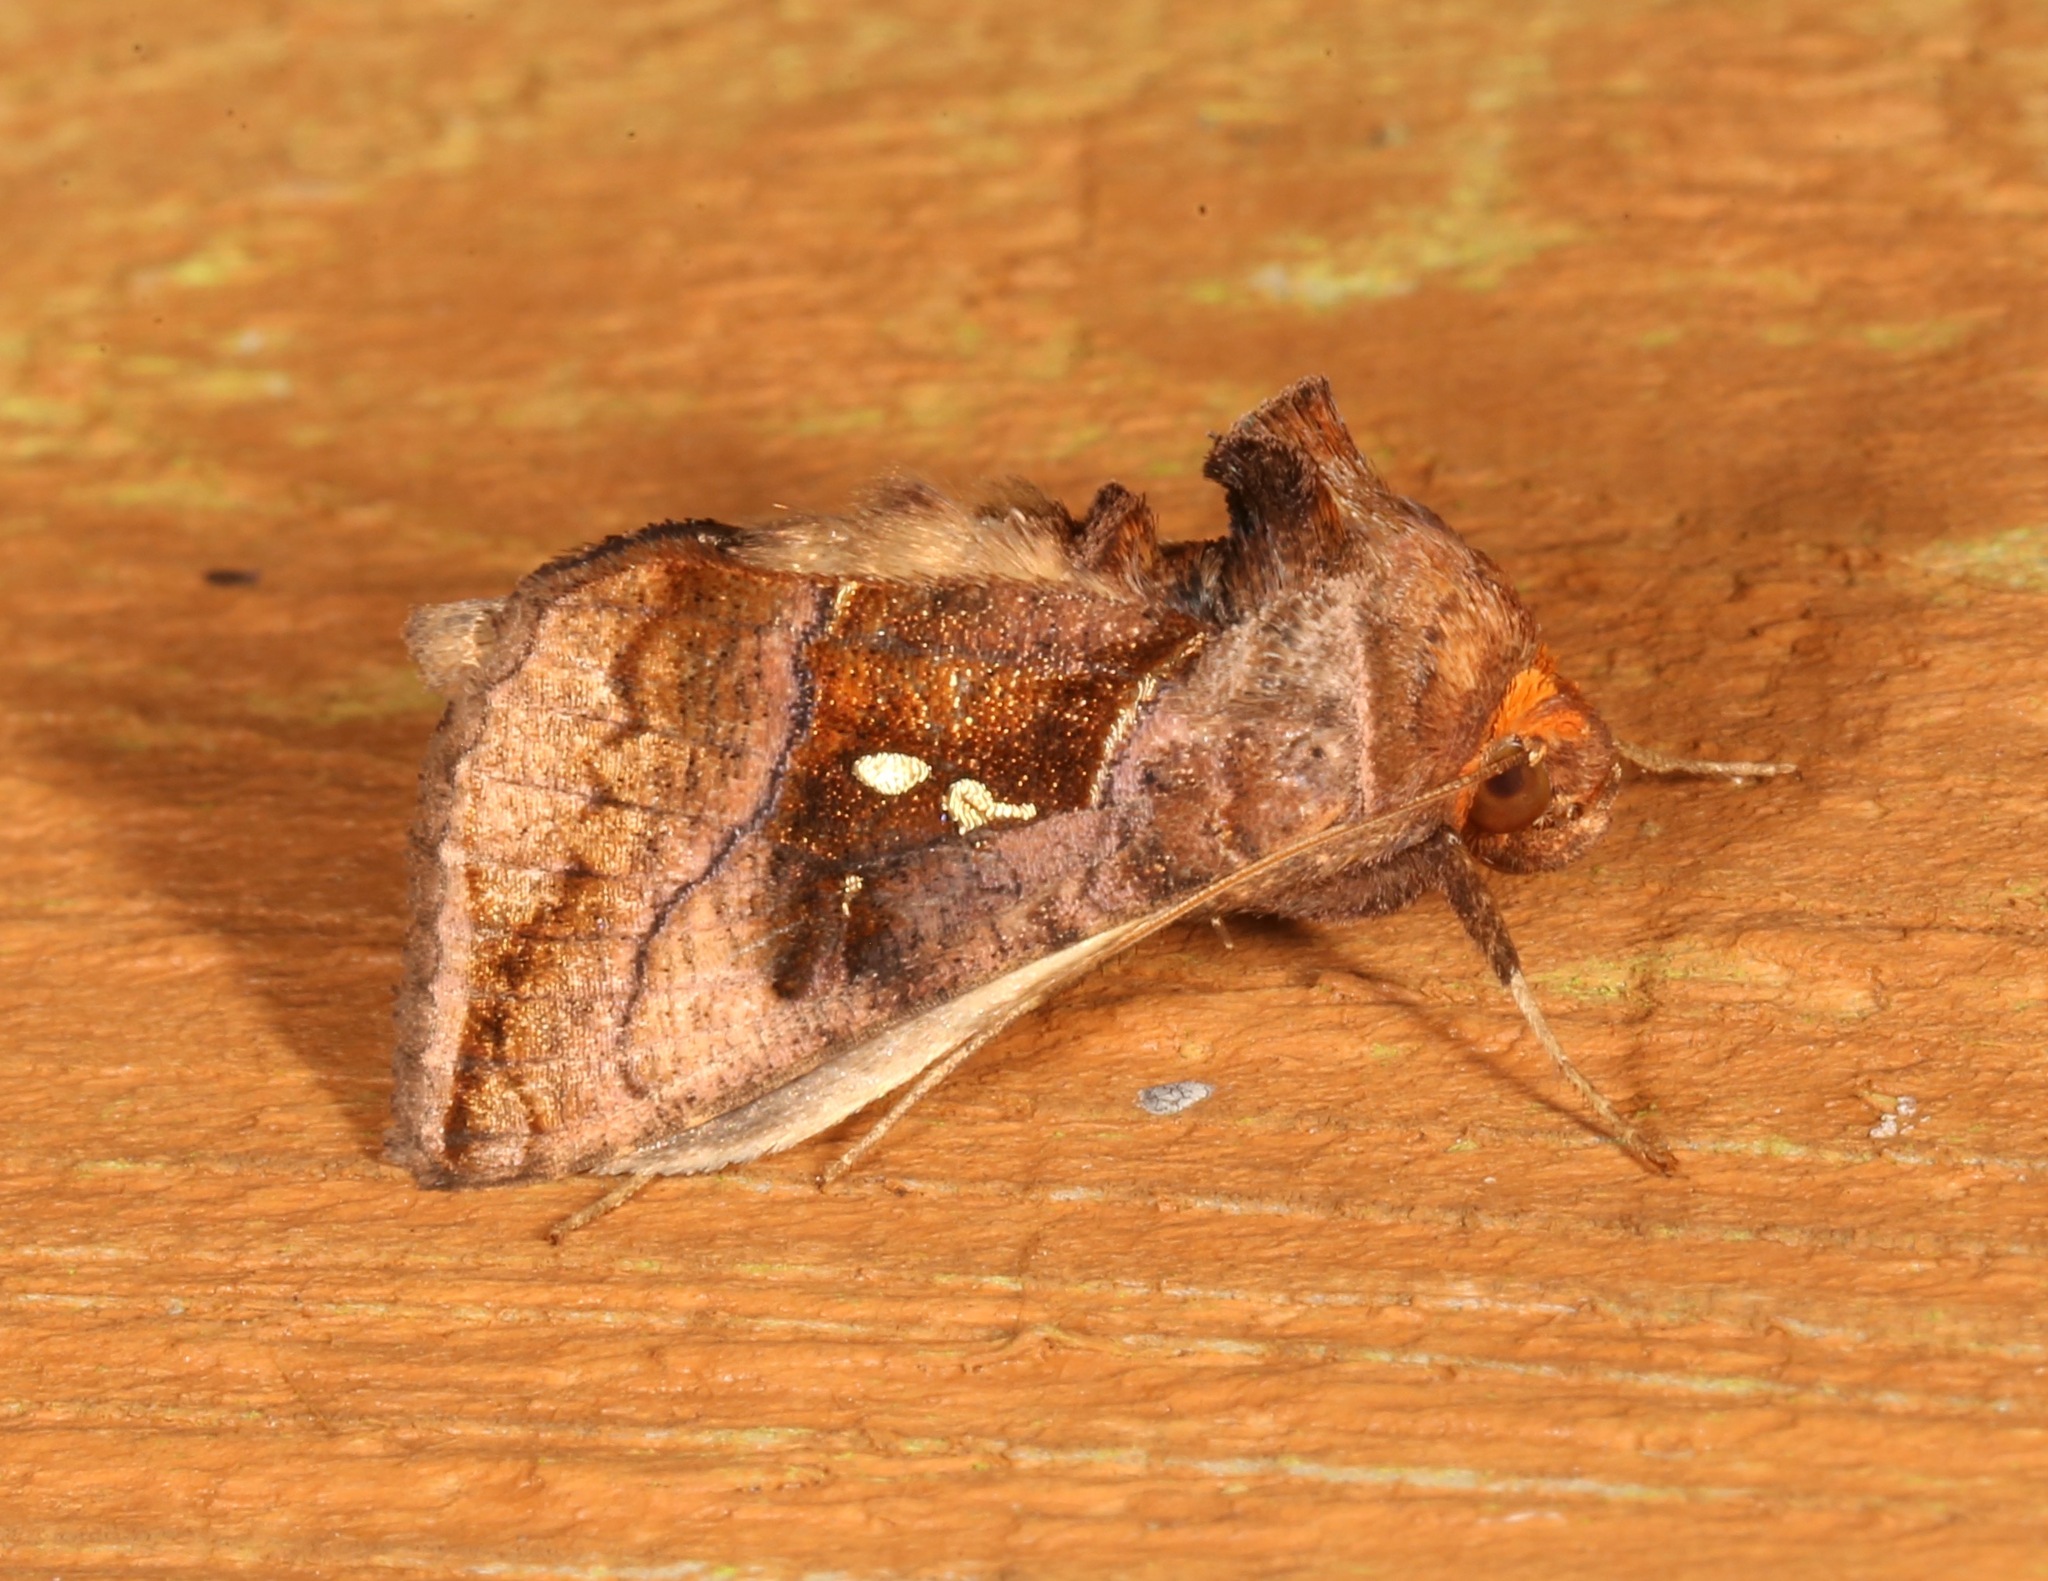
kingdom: Animalia
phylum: Arthropoda
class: Insecta
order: Lepidoptera
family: Noctuidae
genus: Enigmogramma
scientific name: Enigmogramma basigera
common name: Pink-washed looper moth
